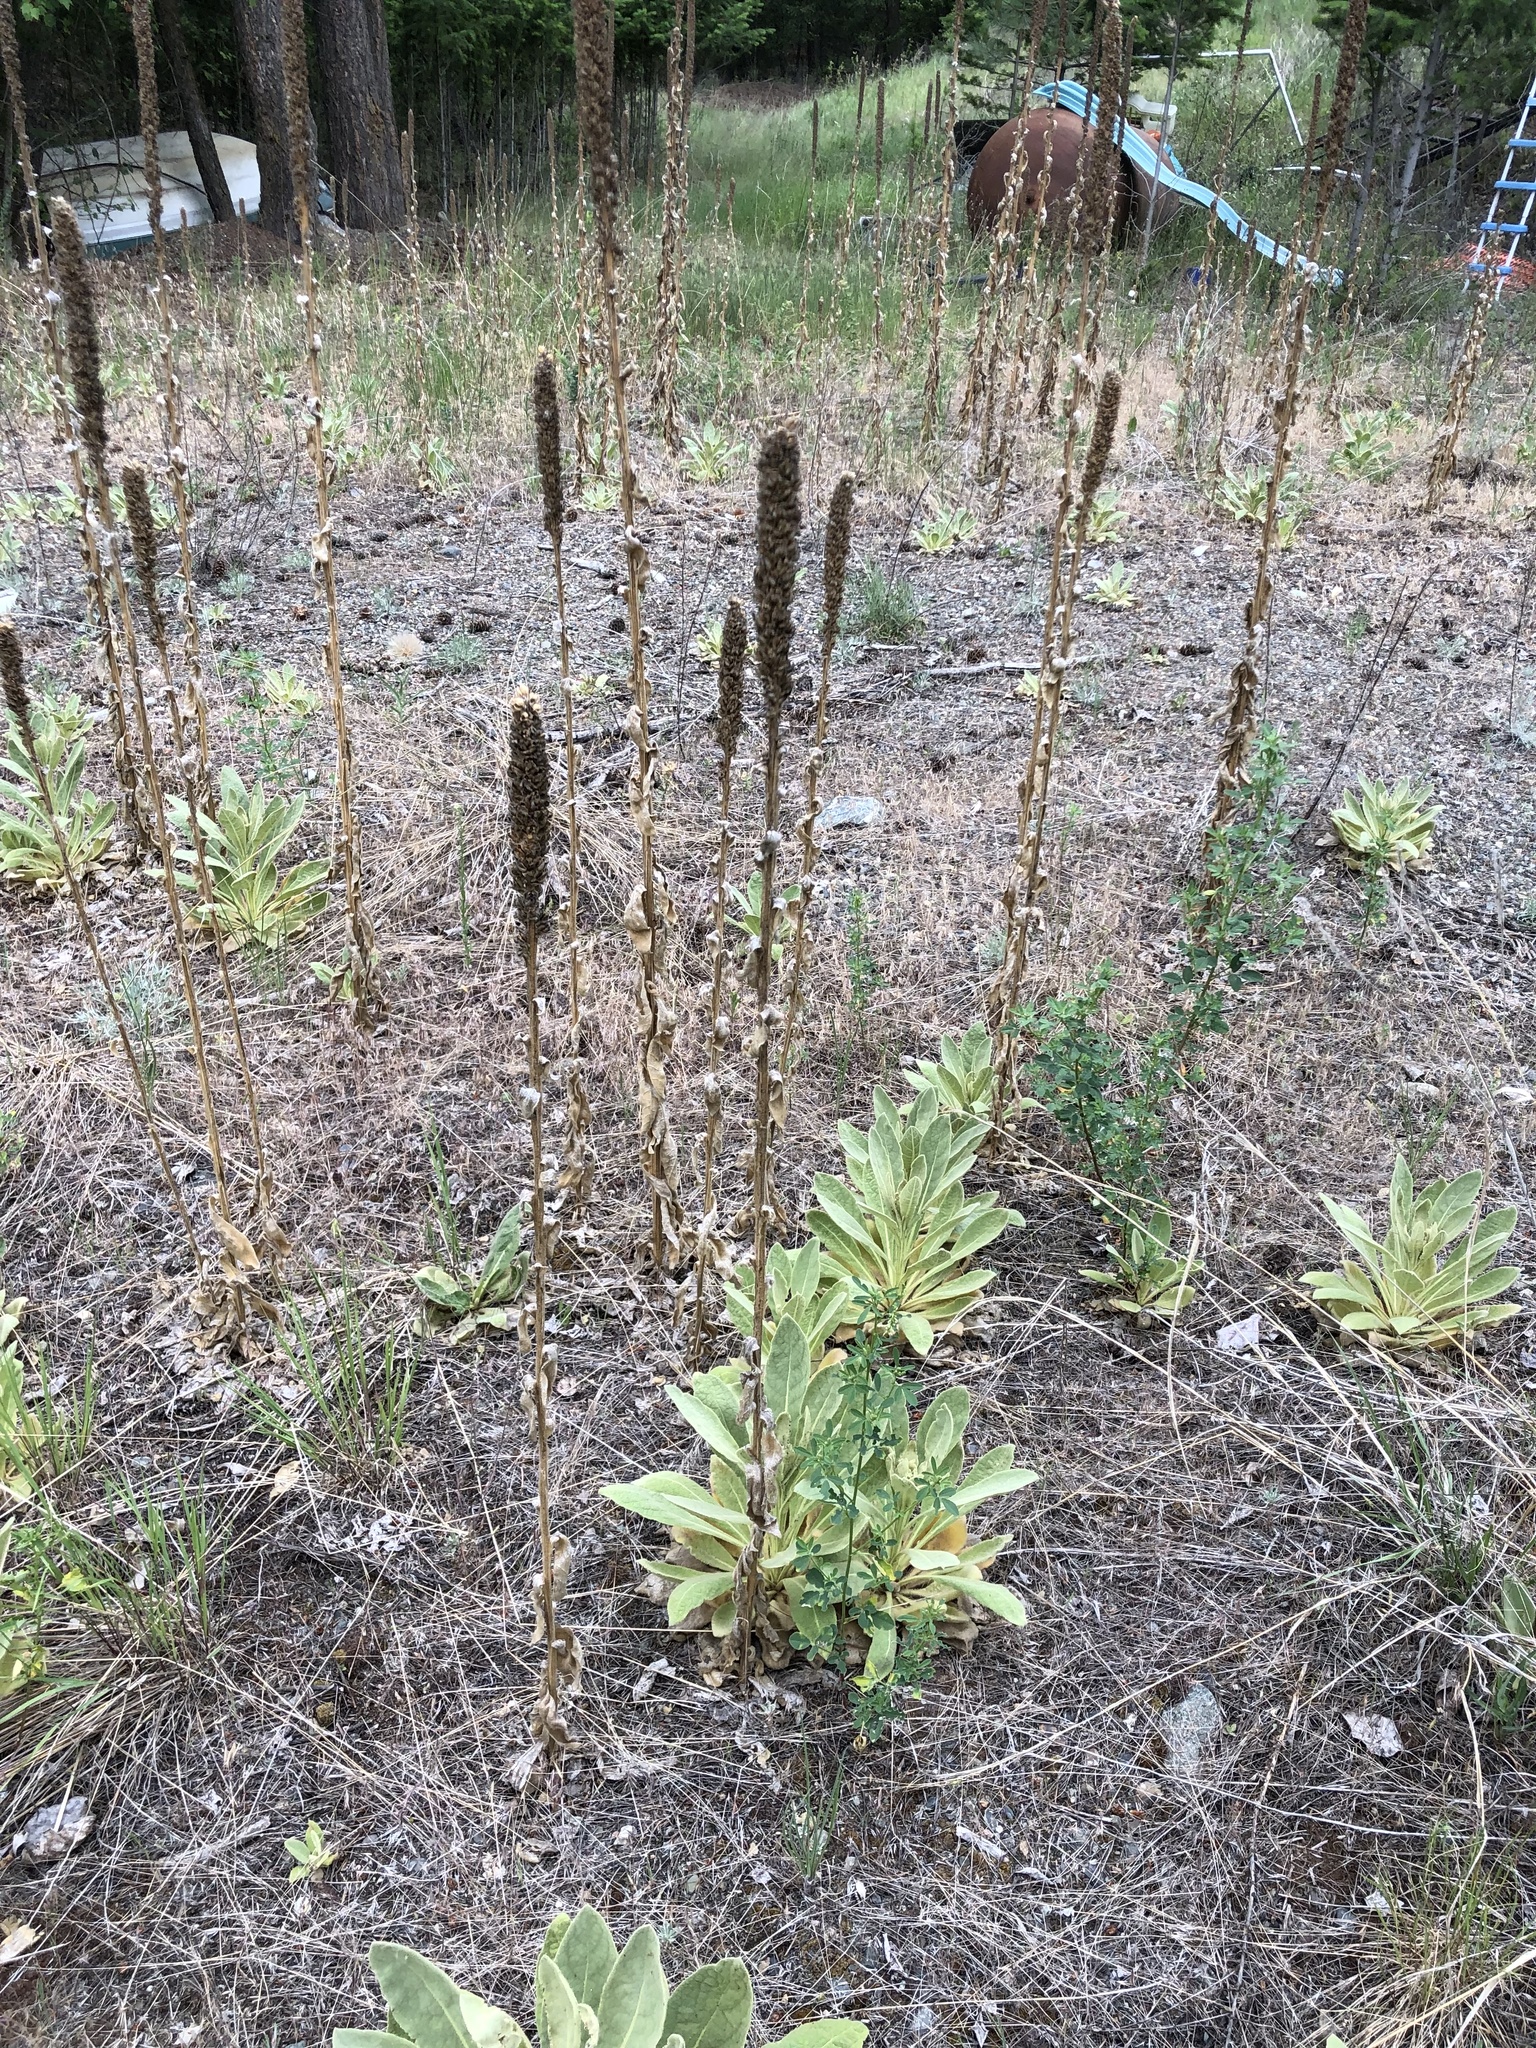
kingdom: Plantae
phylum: Tracheophyta
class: Magnoliopsida
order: Lamiales
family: Scrophulariaceae
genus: Verbascum
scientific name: Verbascum thapsus
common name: Common mullein
